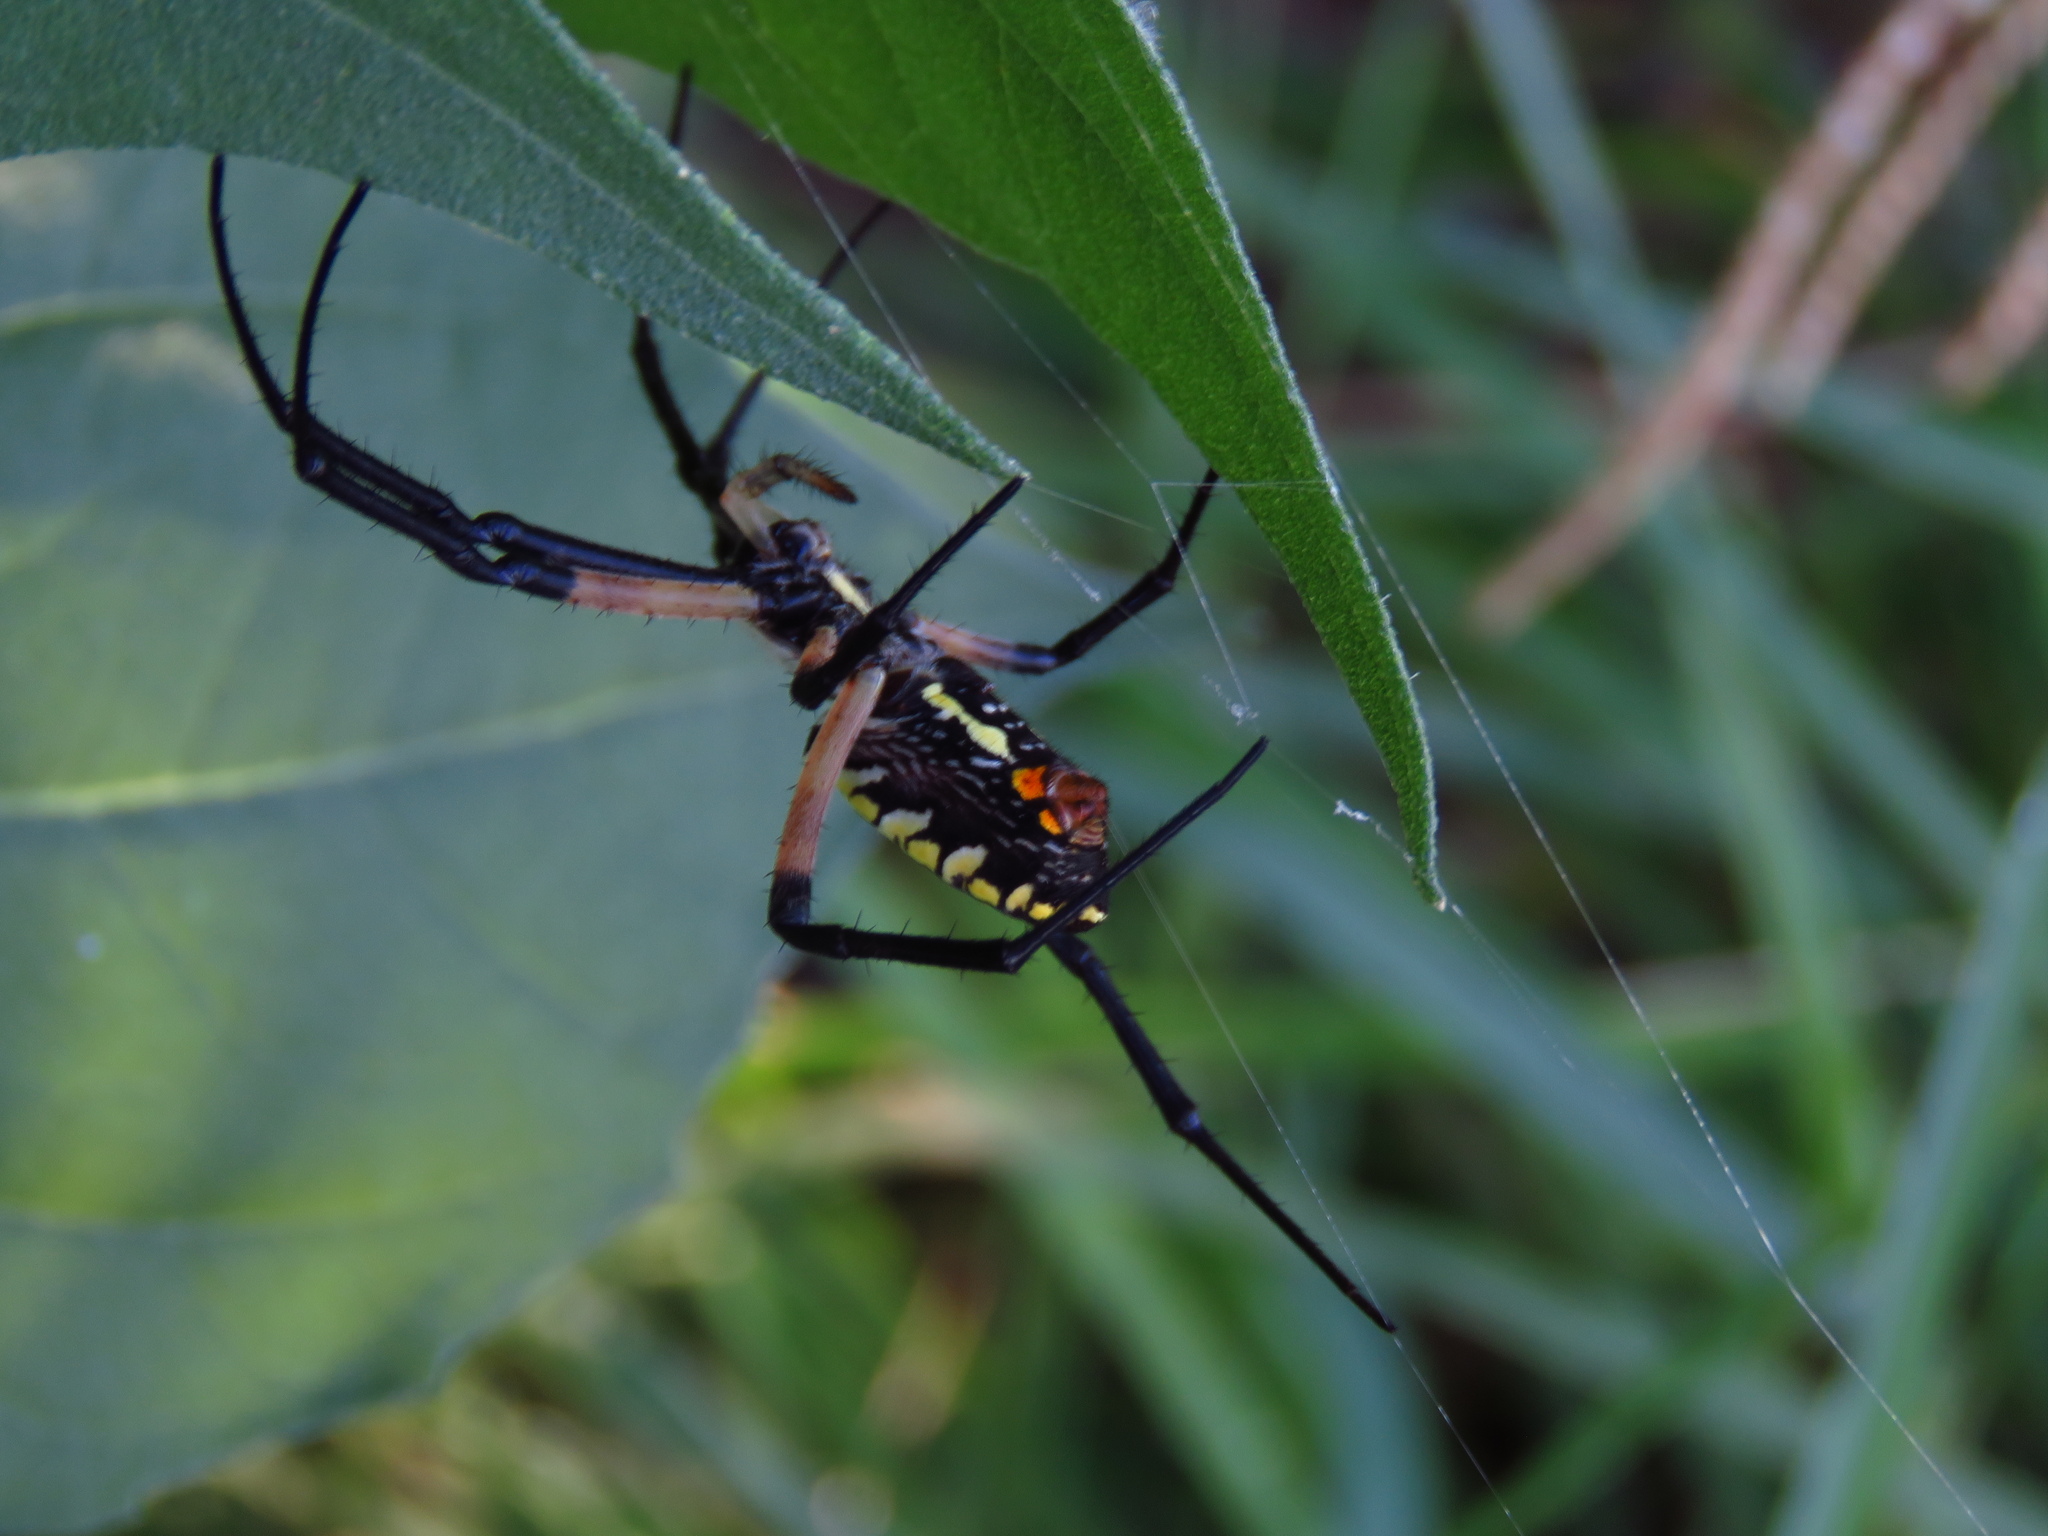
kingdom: Animalia
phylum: Arthropoda
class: Arachnida
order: Araneae
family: Araneidae
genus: Argiope
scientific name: Argiope aurantia
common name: Orb weavers
